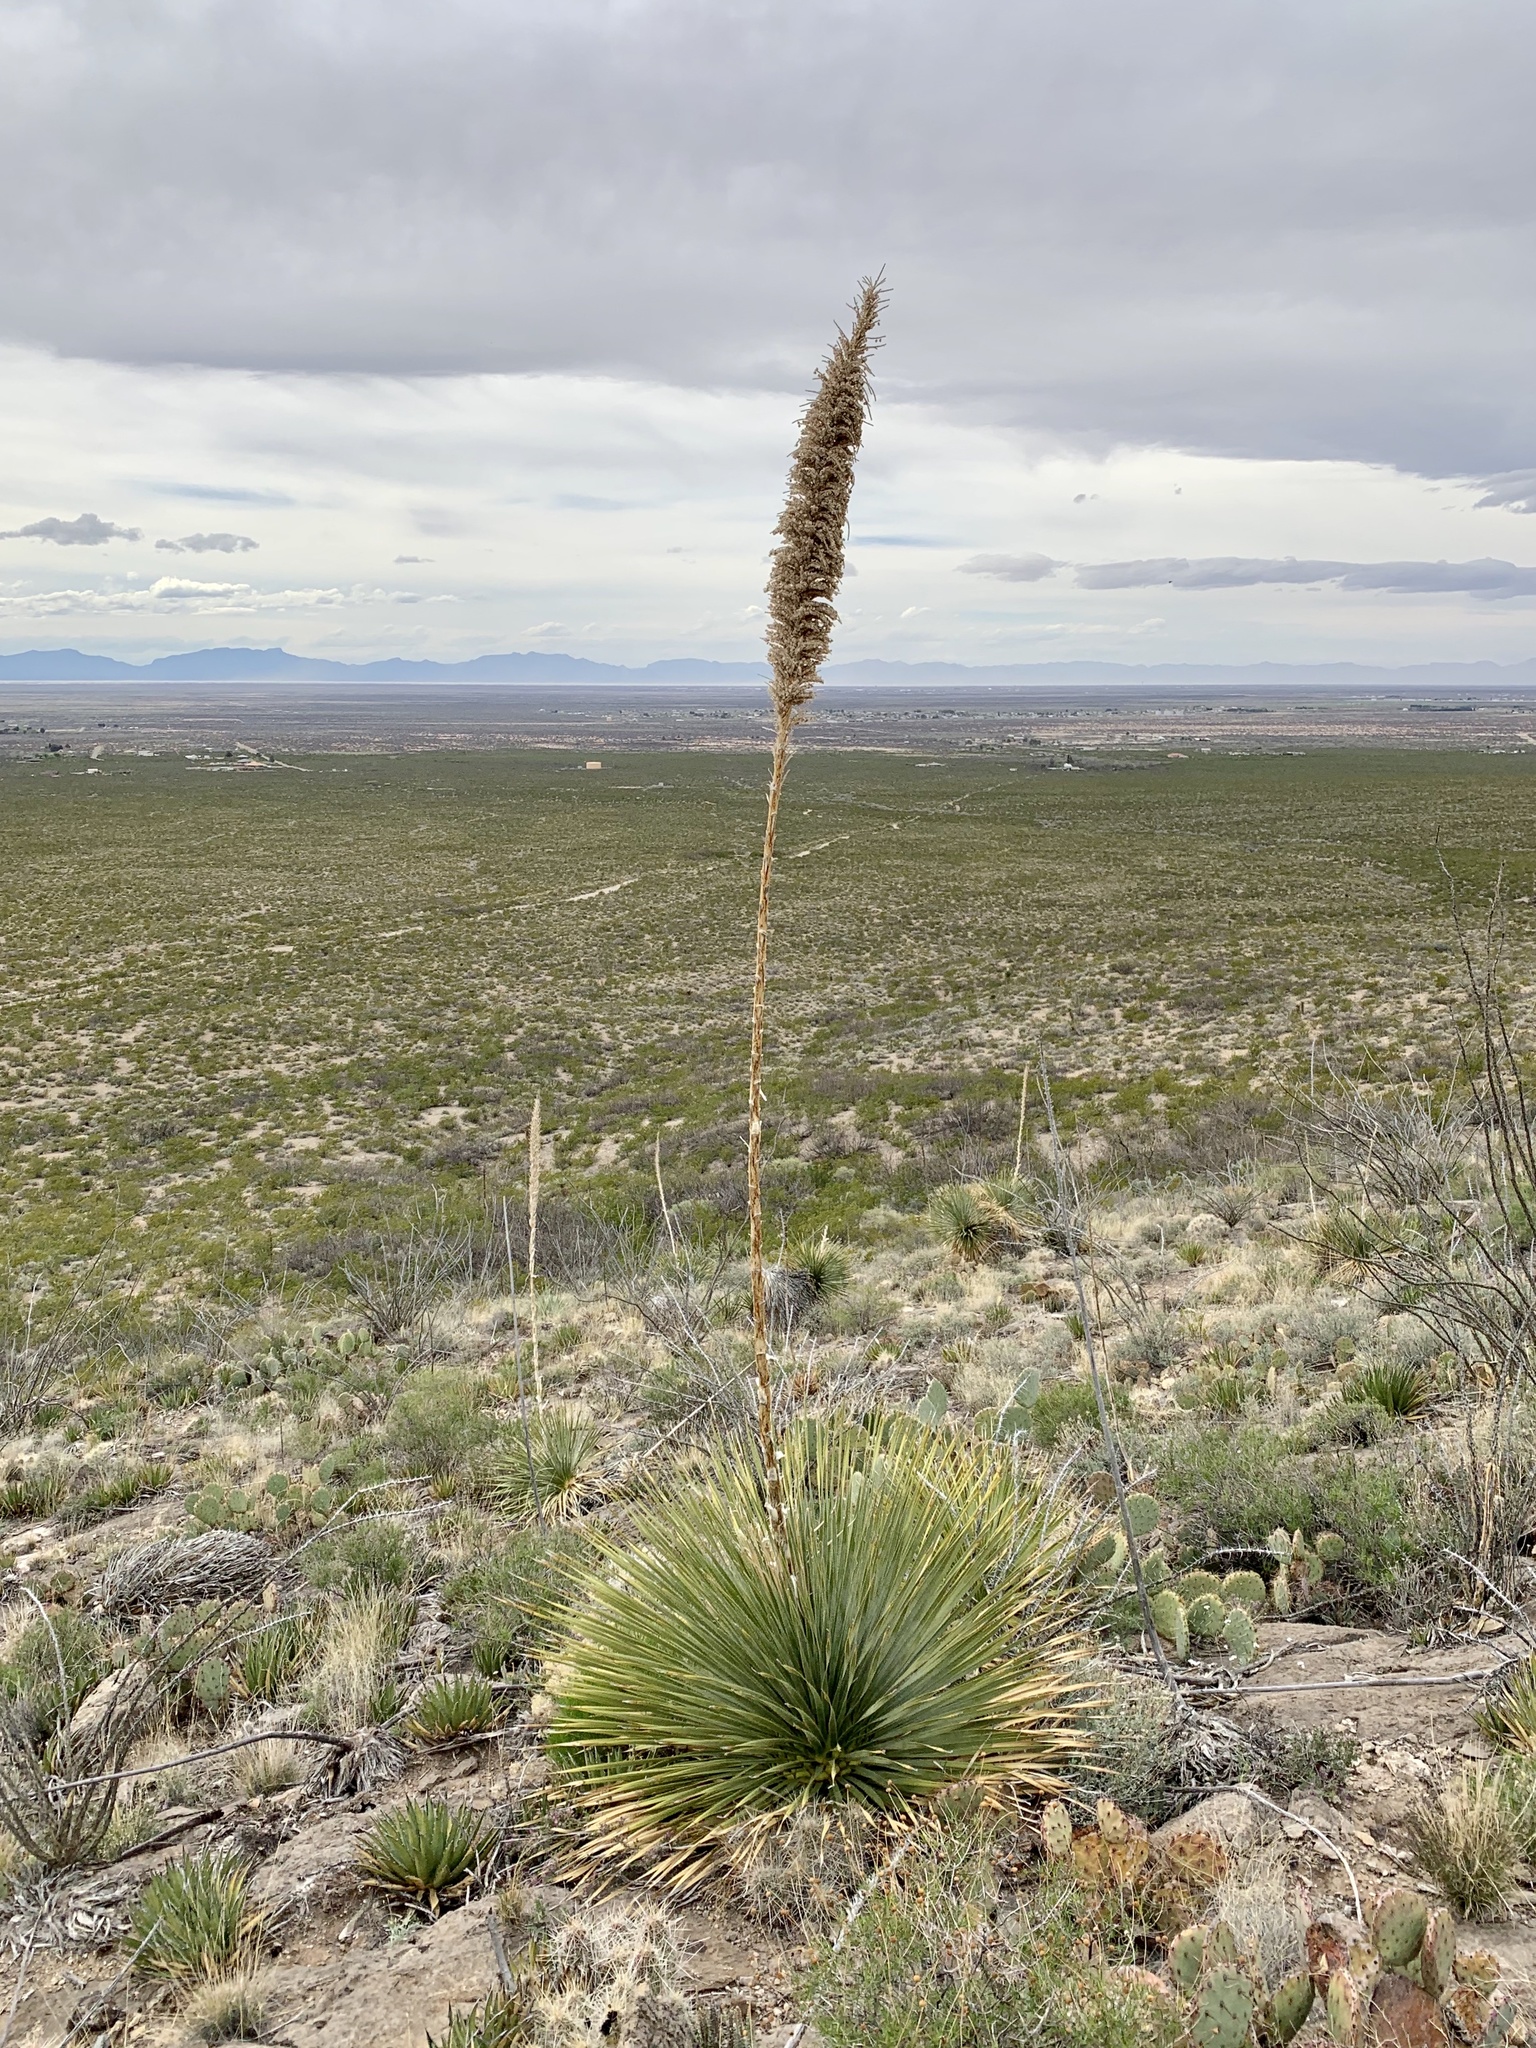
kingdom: Plantae
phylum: Tracheophyta
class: Liliopsida
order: Asparagales
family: Asparagaceae
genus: Dasylirion
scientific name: Dasylirion wheeleri
